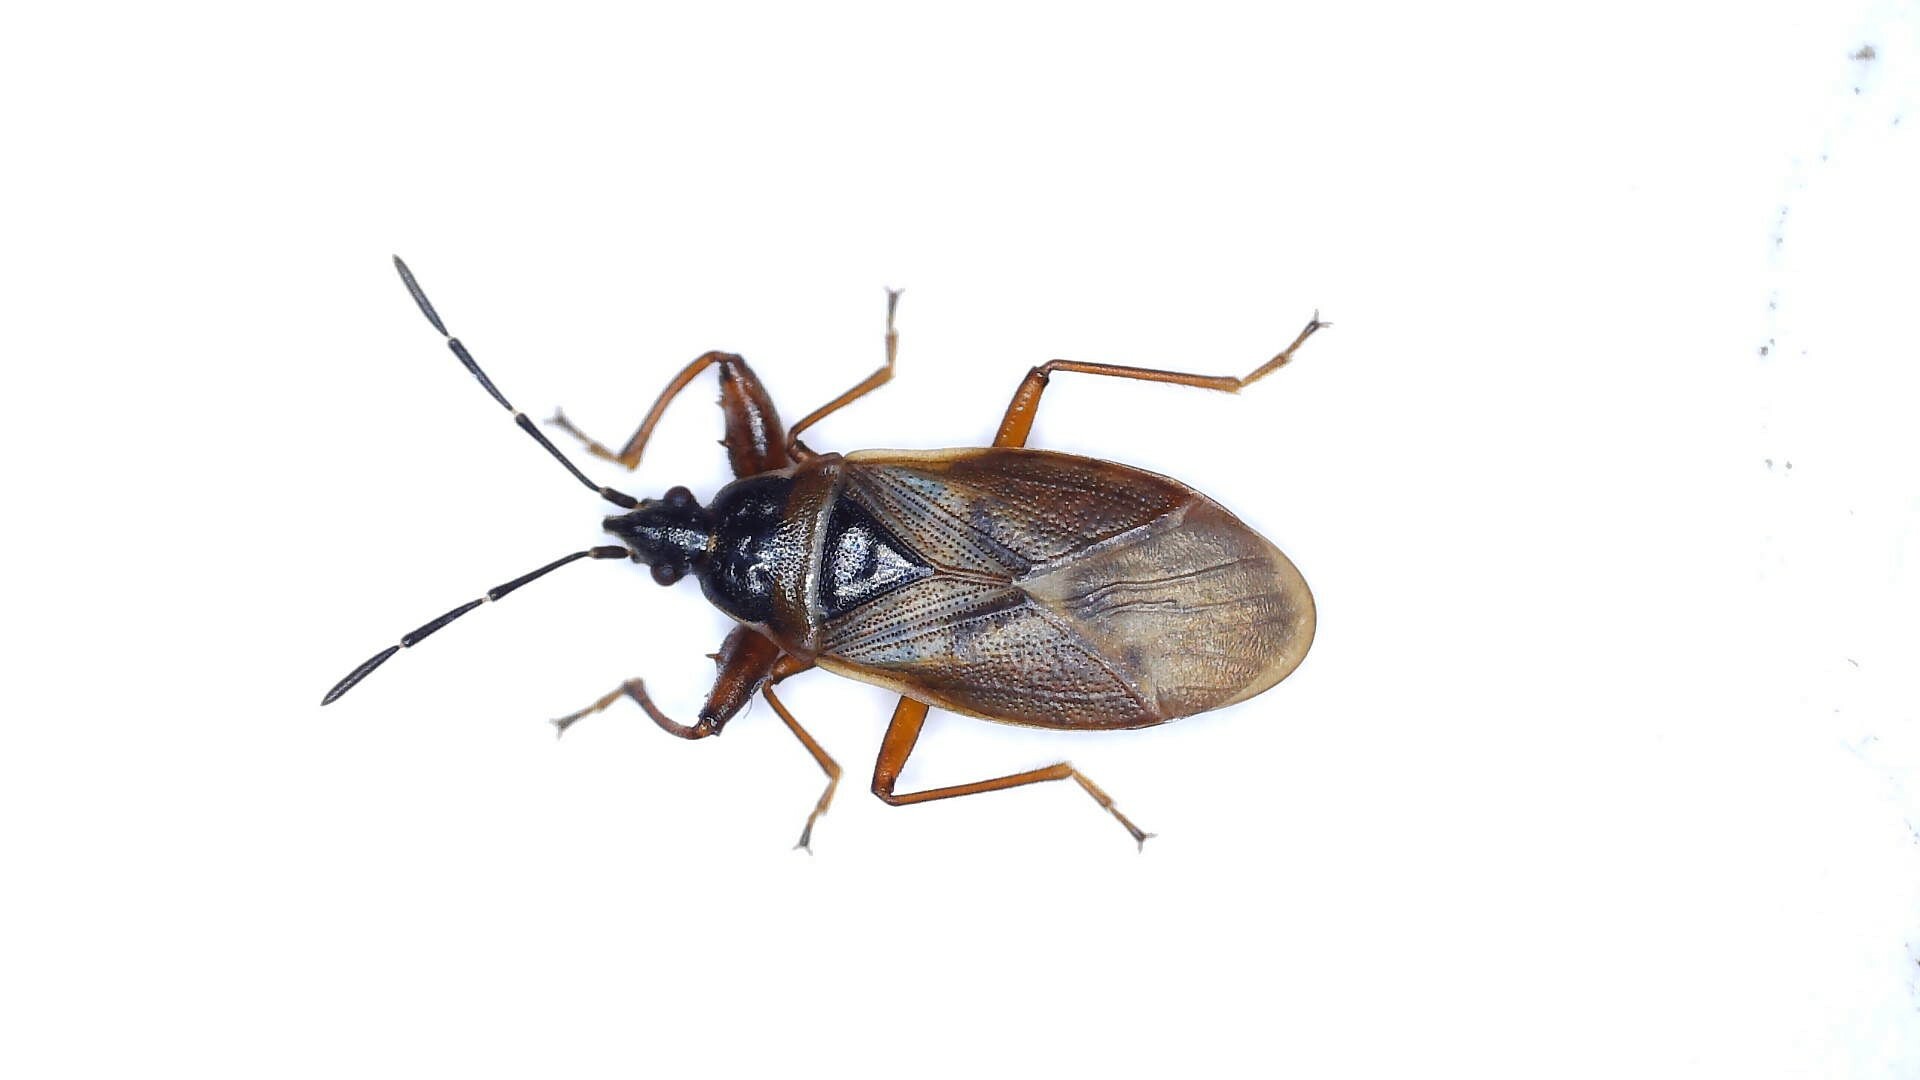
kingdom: Animalia
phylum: Arthropoda
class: Insecta
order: Hemiptera
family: Rhyparochromidae
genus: Gastrodes
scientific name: Gastrodes abietum
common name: Spruce cone bug
